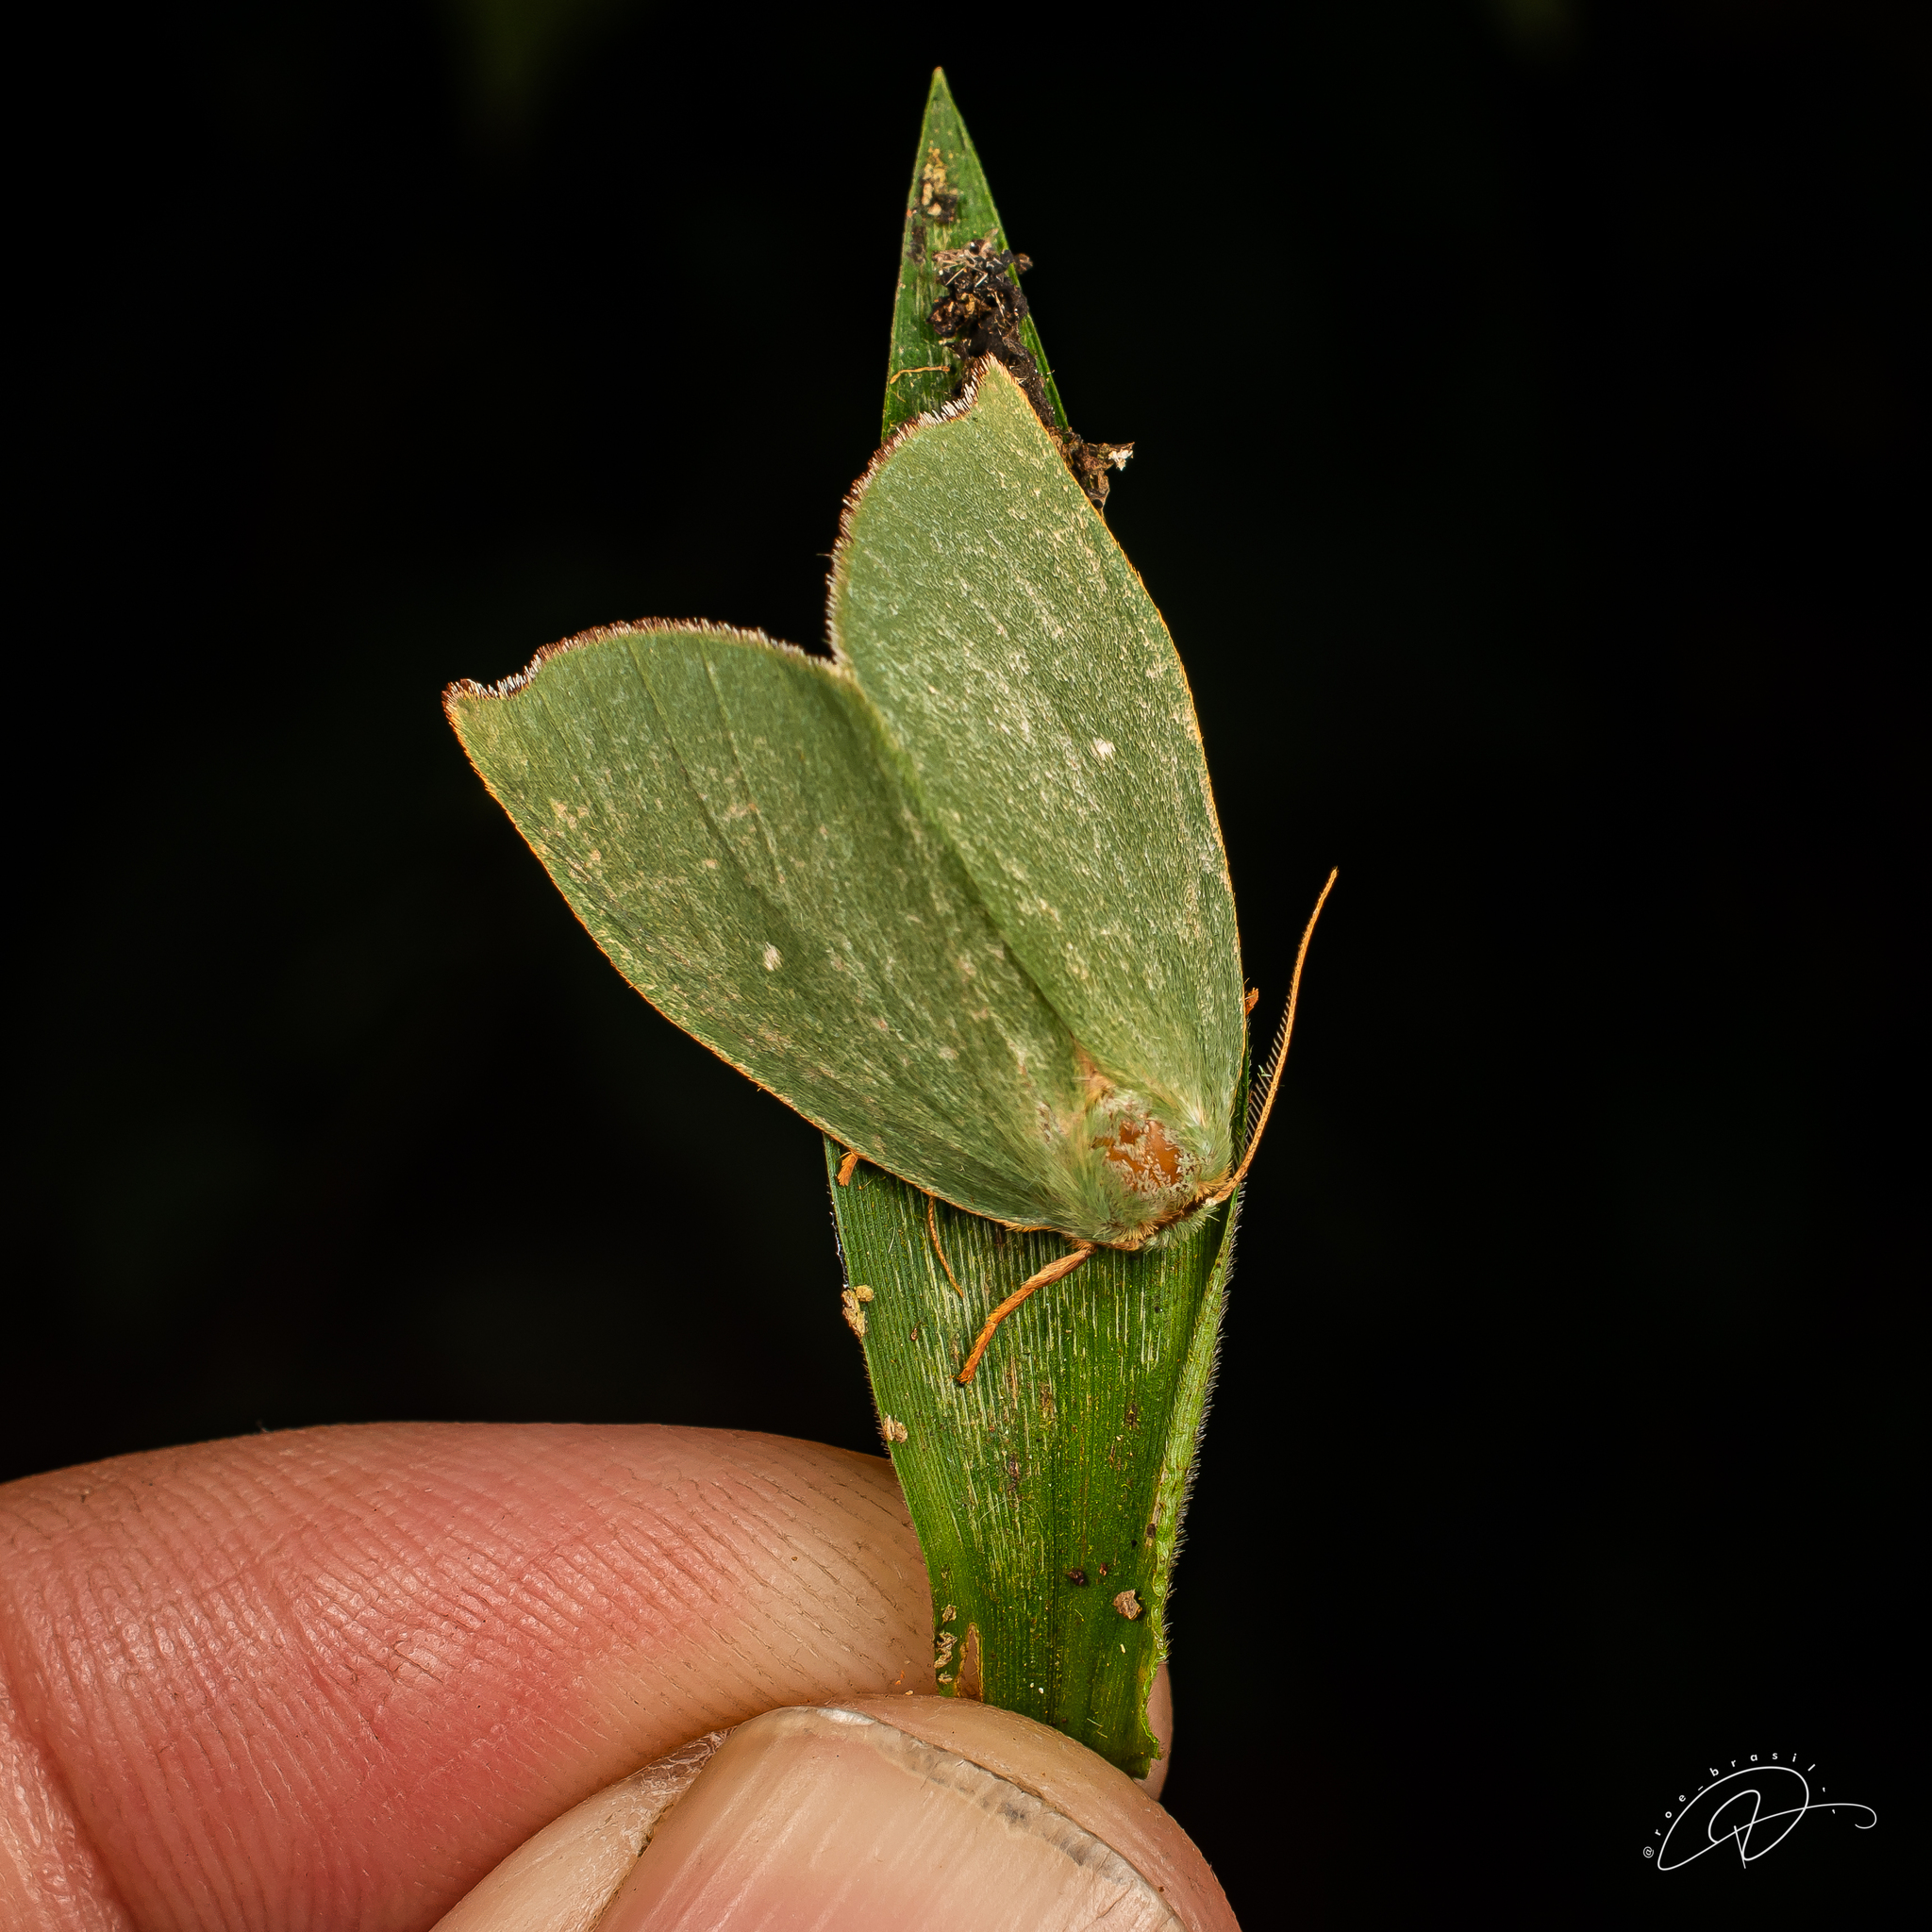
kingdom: Animalia
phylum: Arthropoda
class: Insecta
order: Lepidoptera
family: Notodontidae
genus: Rosema
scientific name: Rosema excavata
